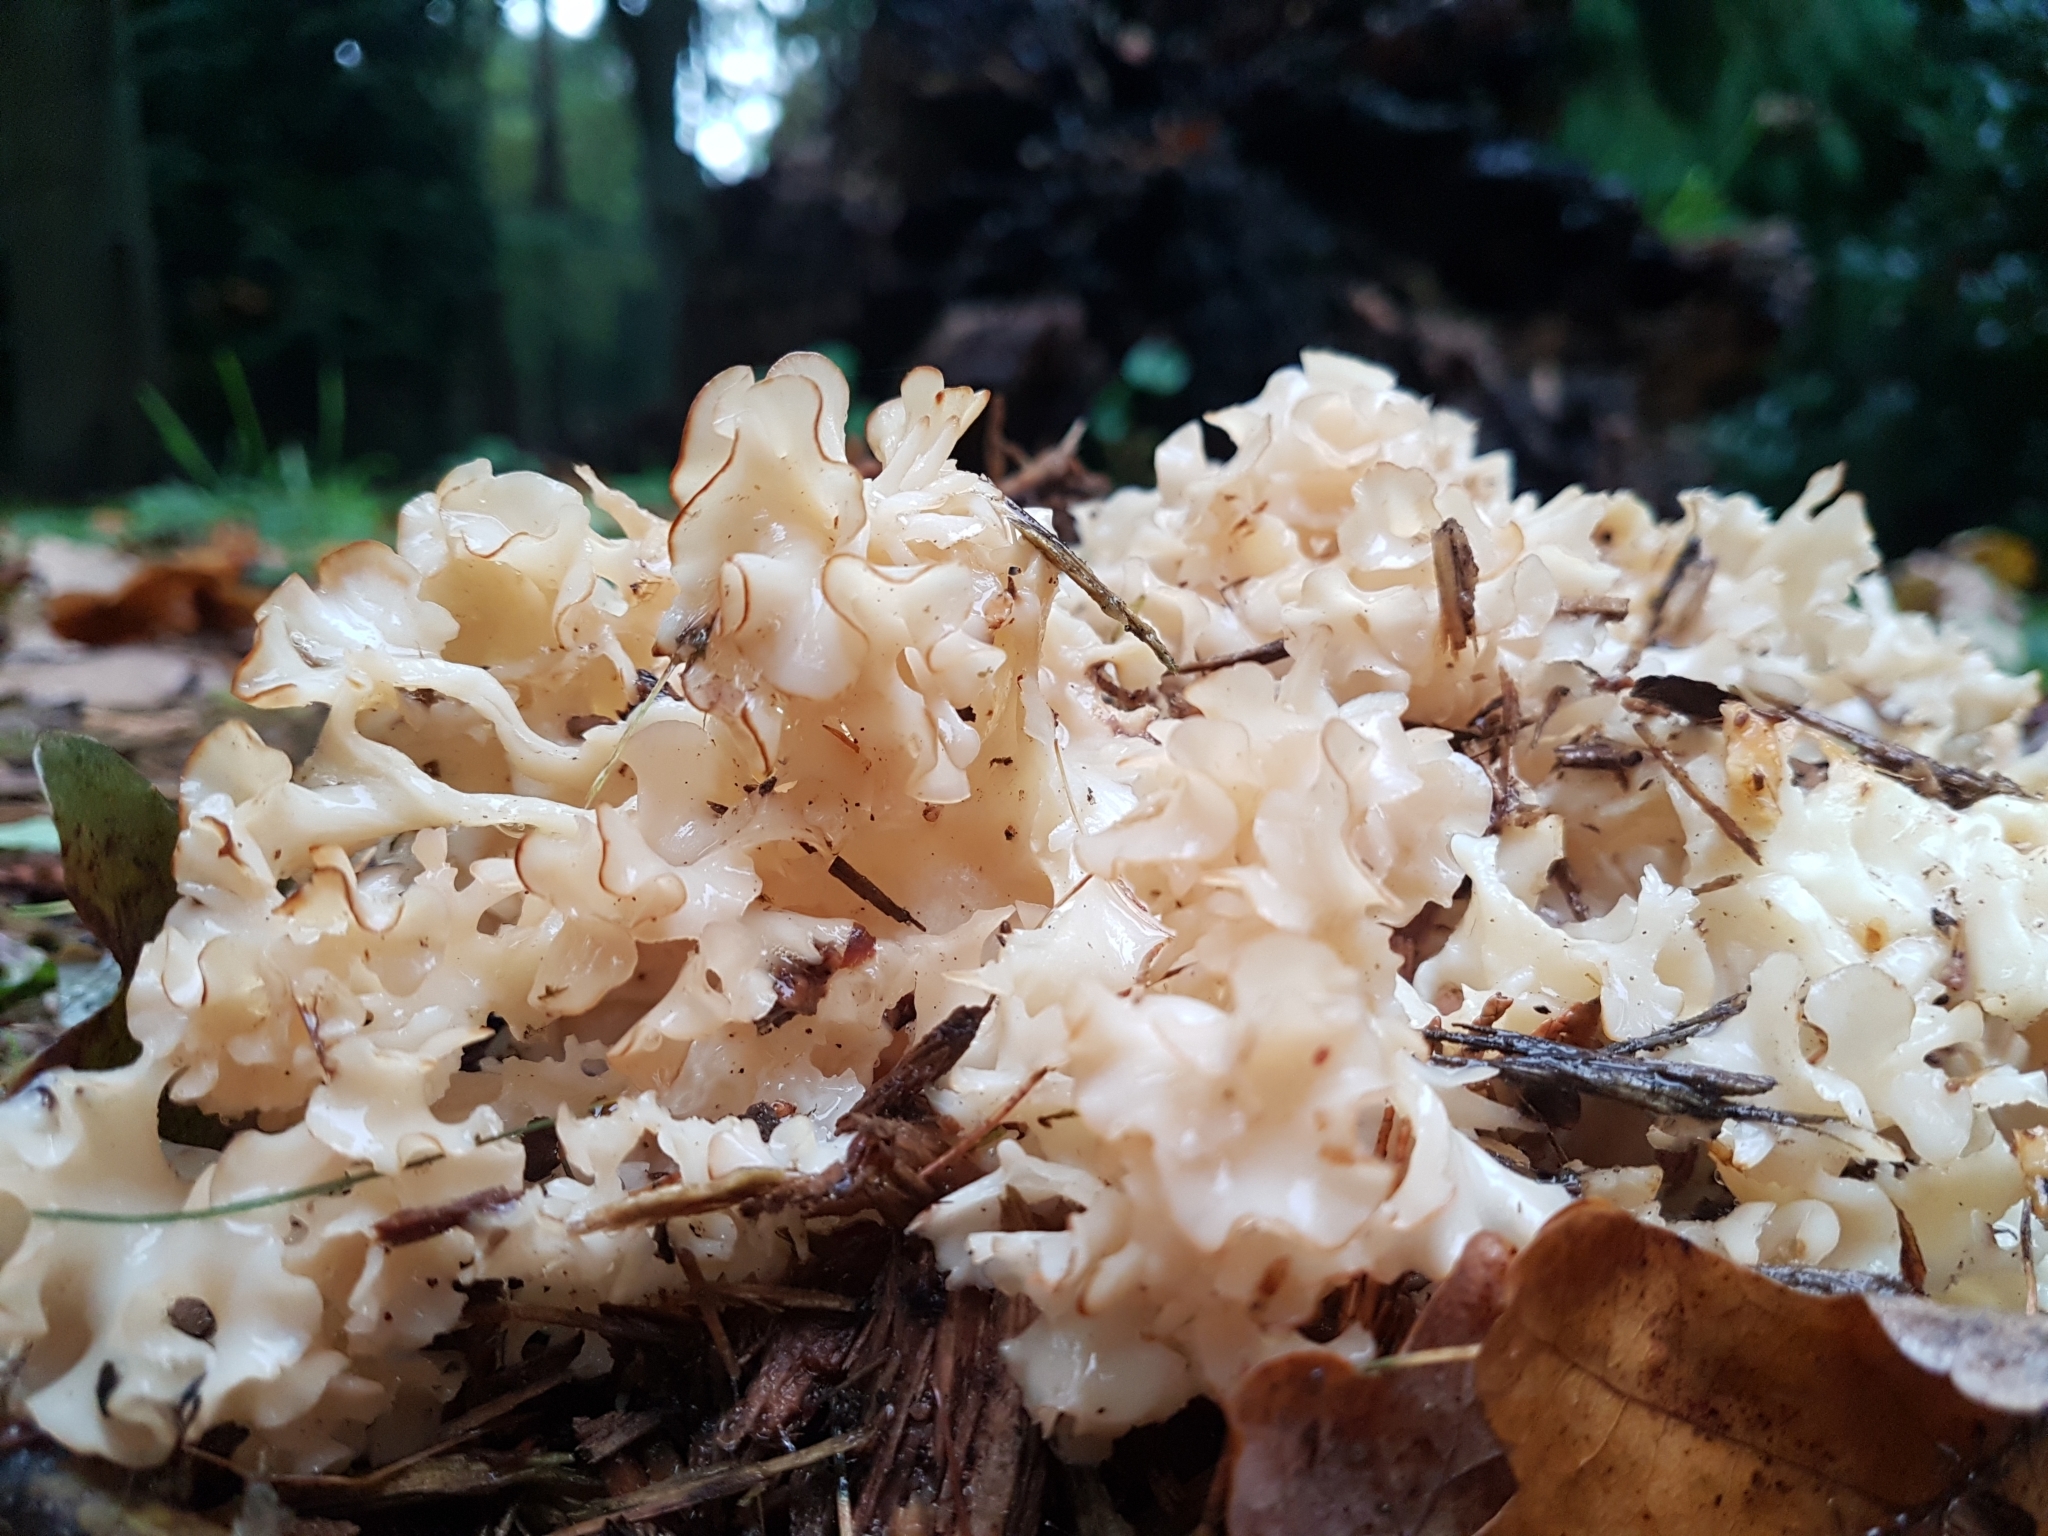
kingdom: Fungi
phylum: Basidiomycota
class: Agaricomycetes
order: Polyporales
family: Sparassidaceae
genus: Sparassis
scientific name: Sparassis crispa
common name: Brain fungus
